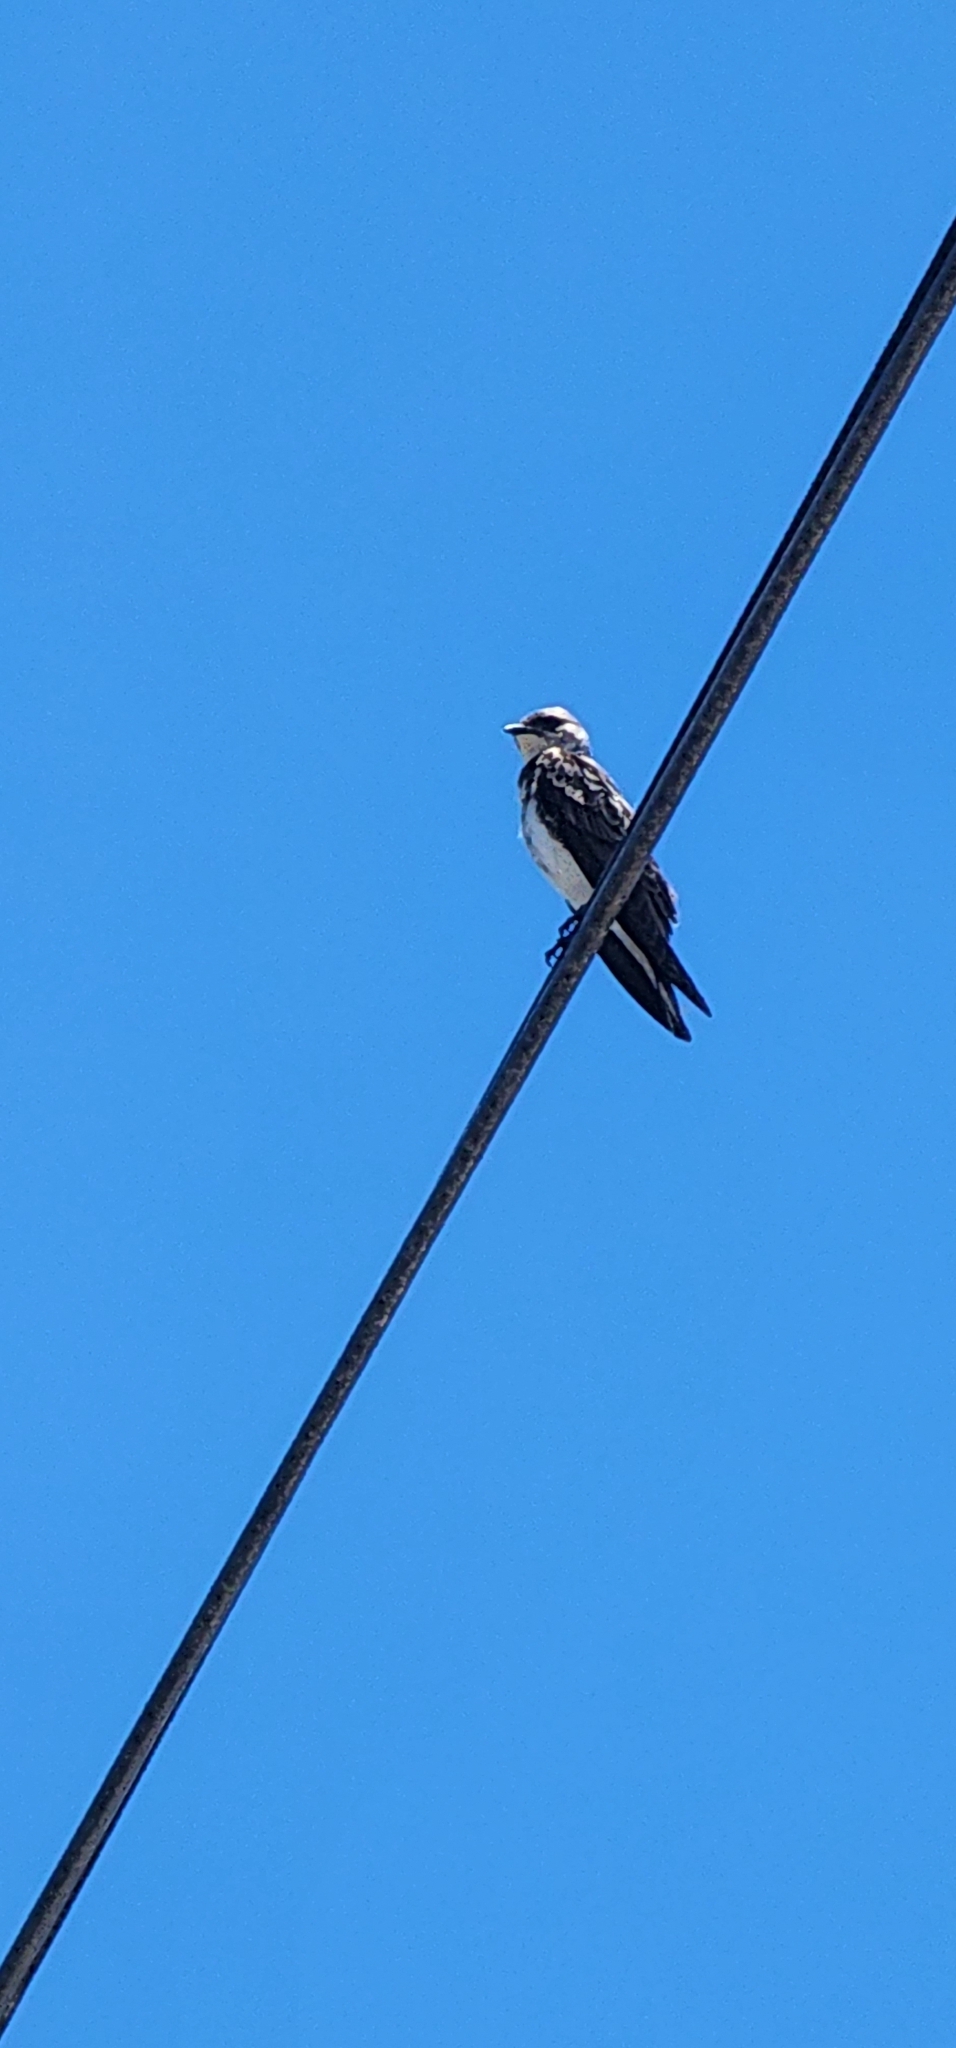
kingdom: Animalia
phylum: Chordata
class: Aves
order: Passeriformes
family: Hirundinidae
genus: Progne
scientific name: Progne tapera
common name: Brown-chested martin
